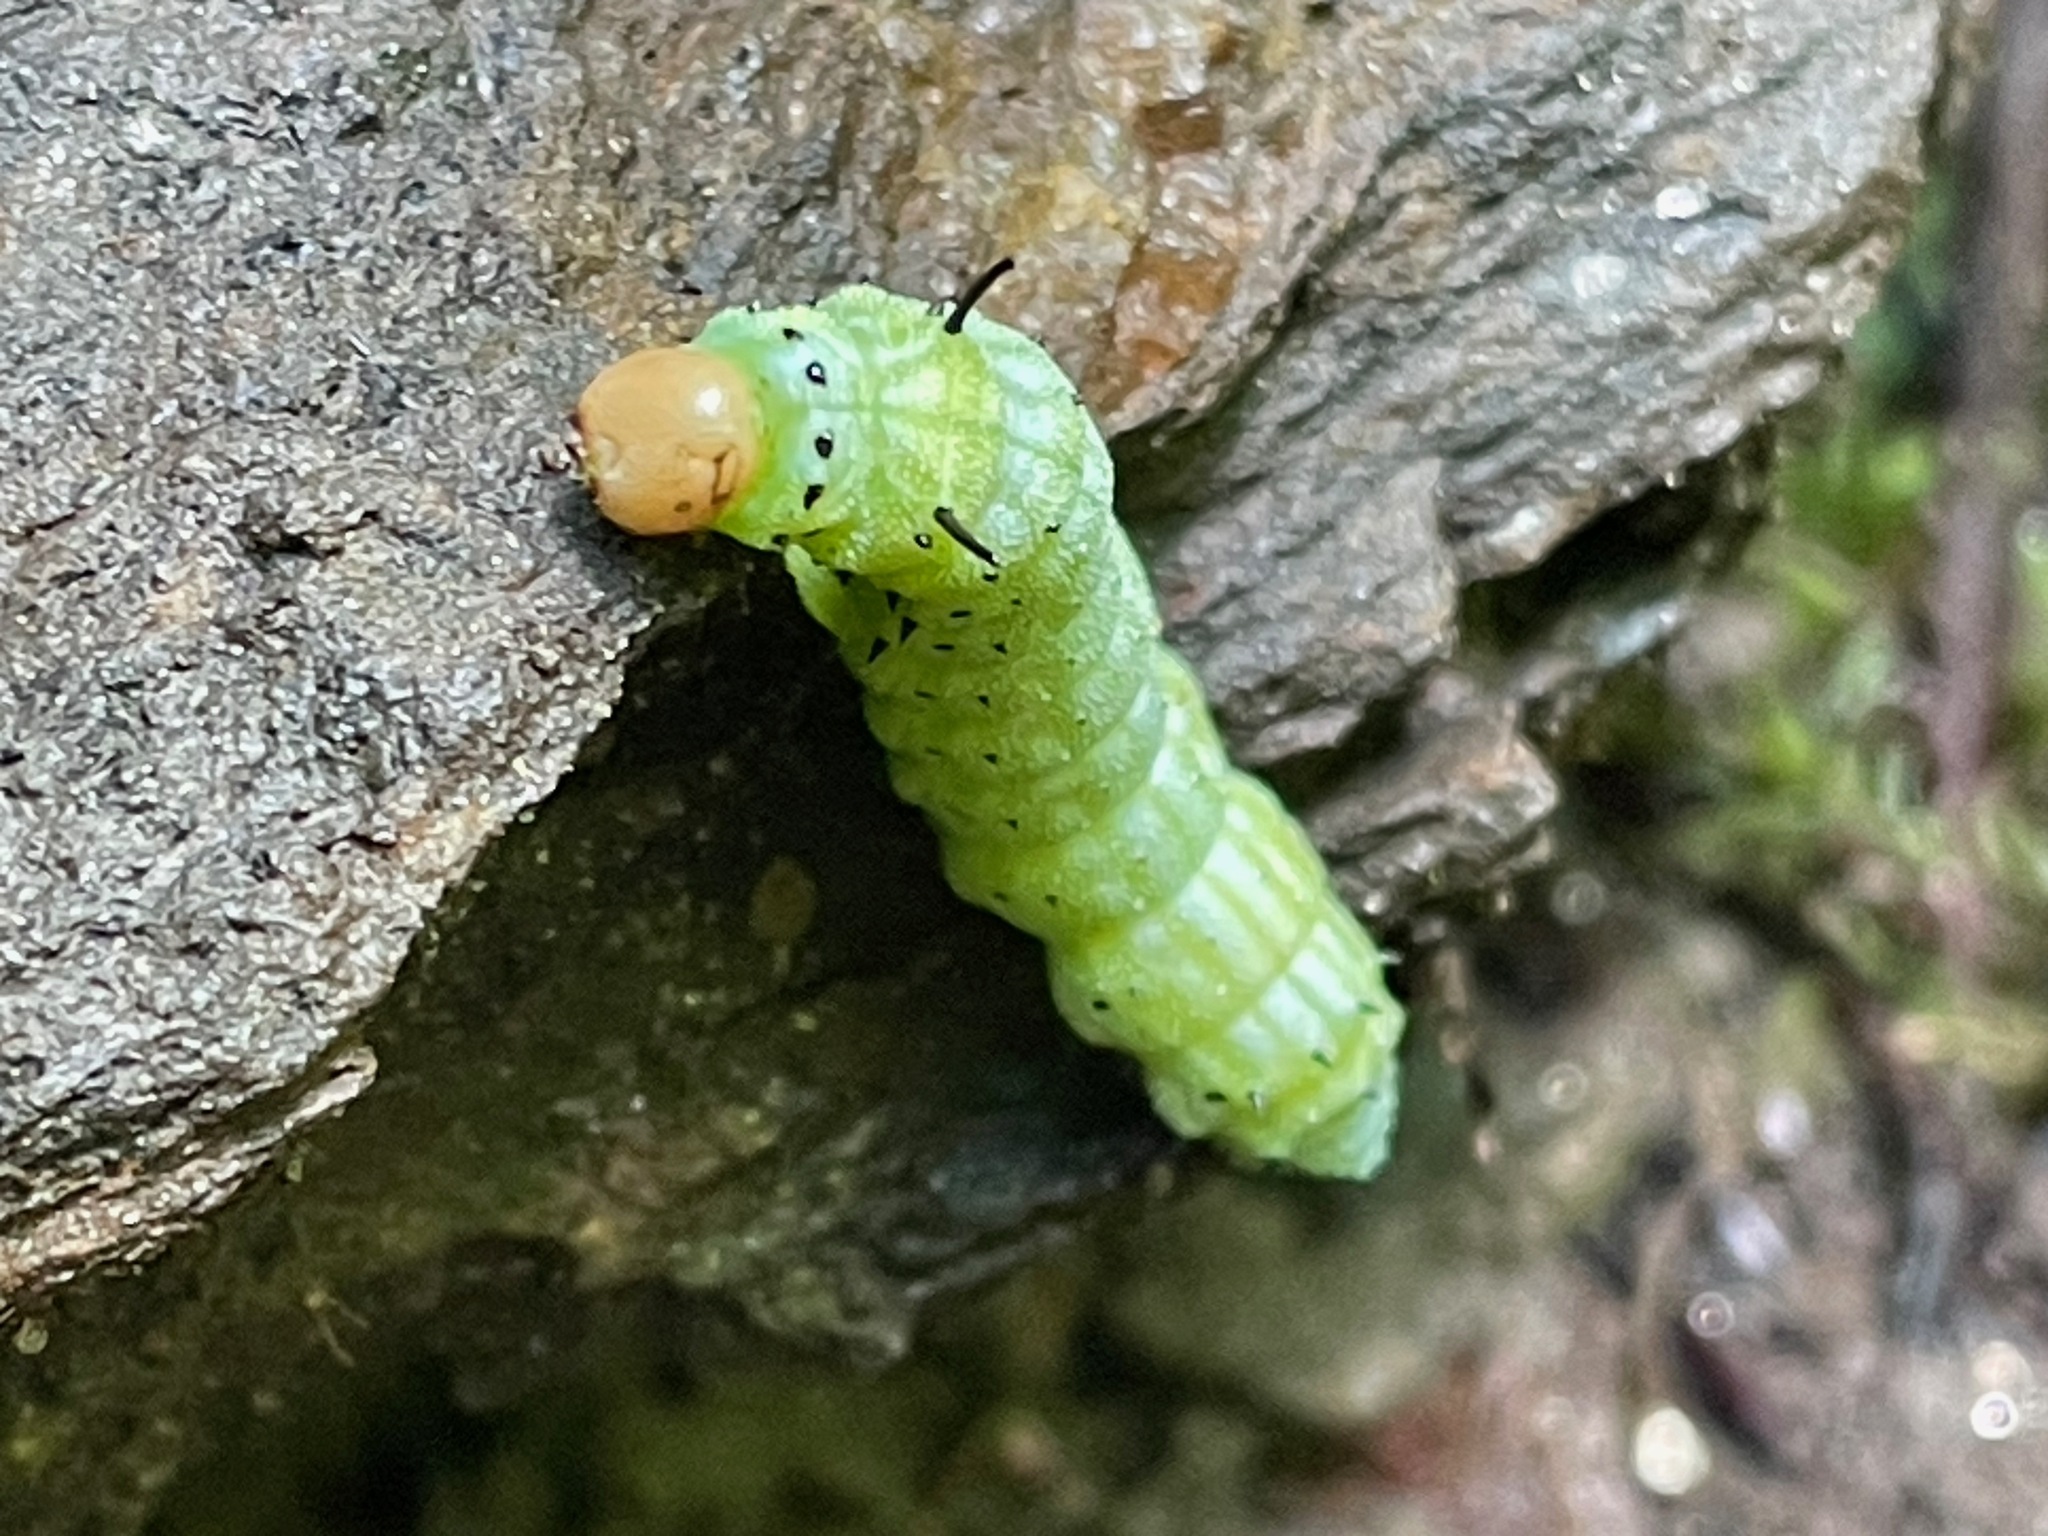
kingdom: Animalia
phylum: Arthropoda
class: Insecta
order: Lepidoptera
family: Saturniidae
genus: Dryocampa
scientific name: Dryocampa rubicunda
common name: Rosy maple moth
